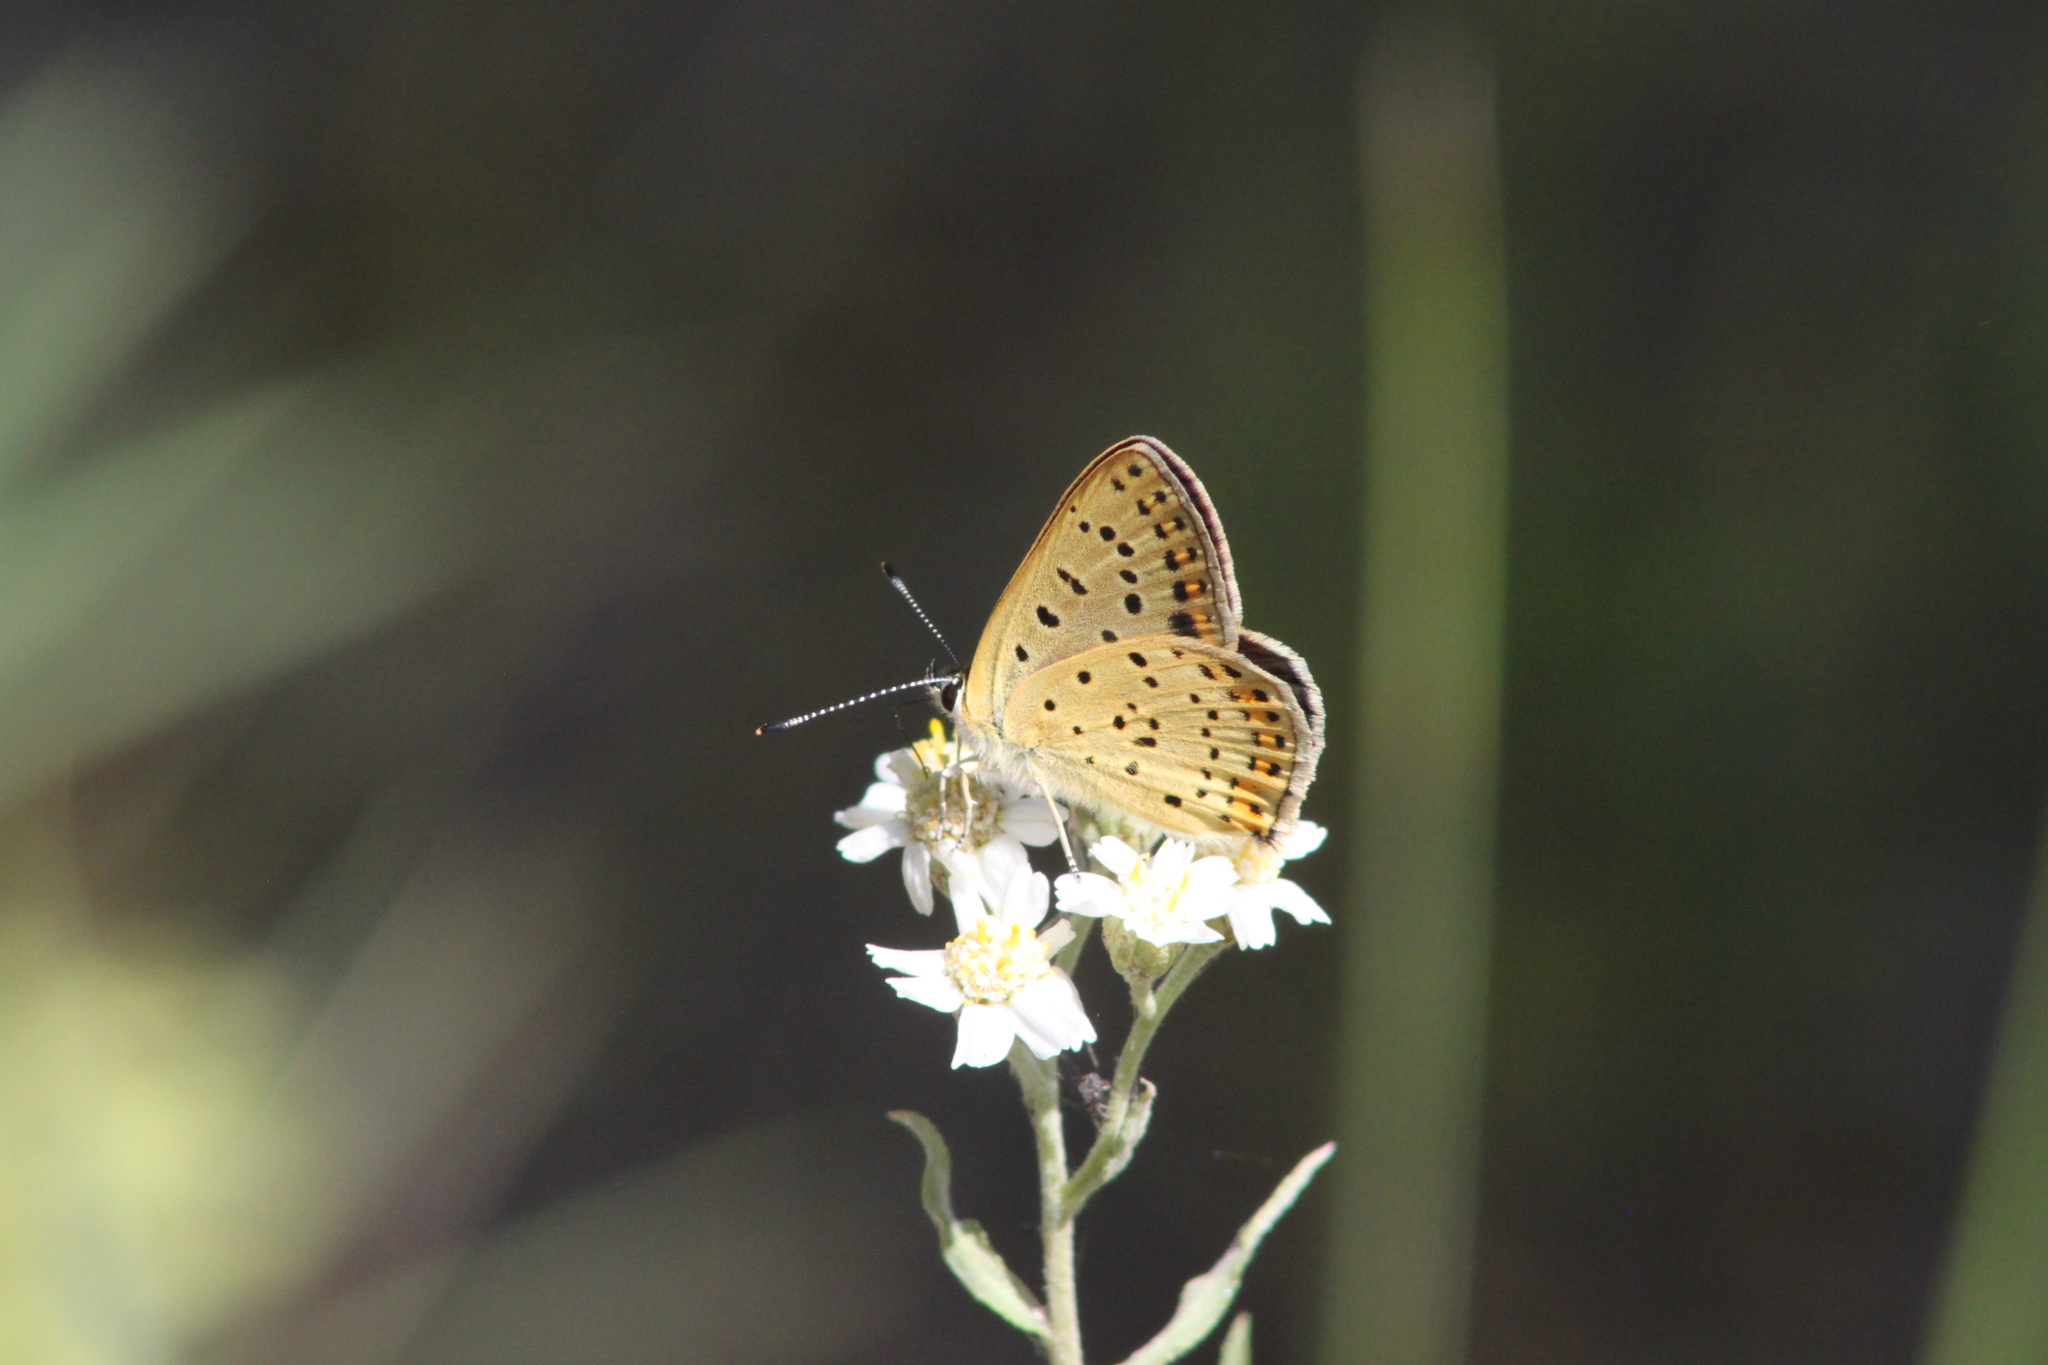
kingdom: Animalia
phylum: Arthropoda
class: Insecta
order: Lepidoptera
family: Lycaenidae
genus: Loweia
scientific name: Loweia tityrus
